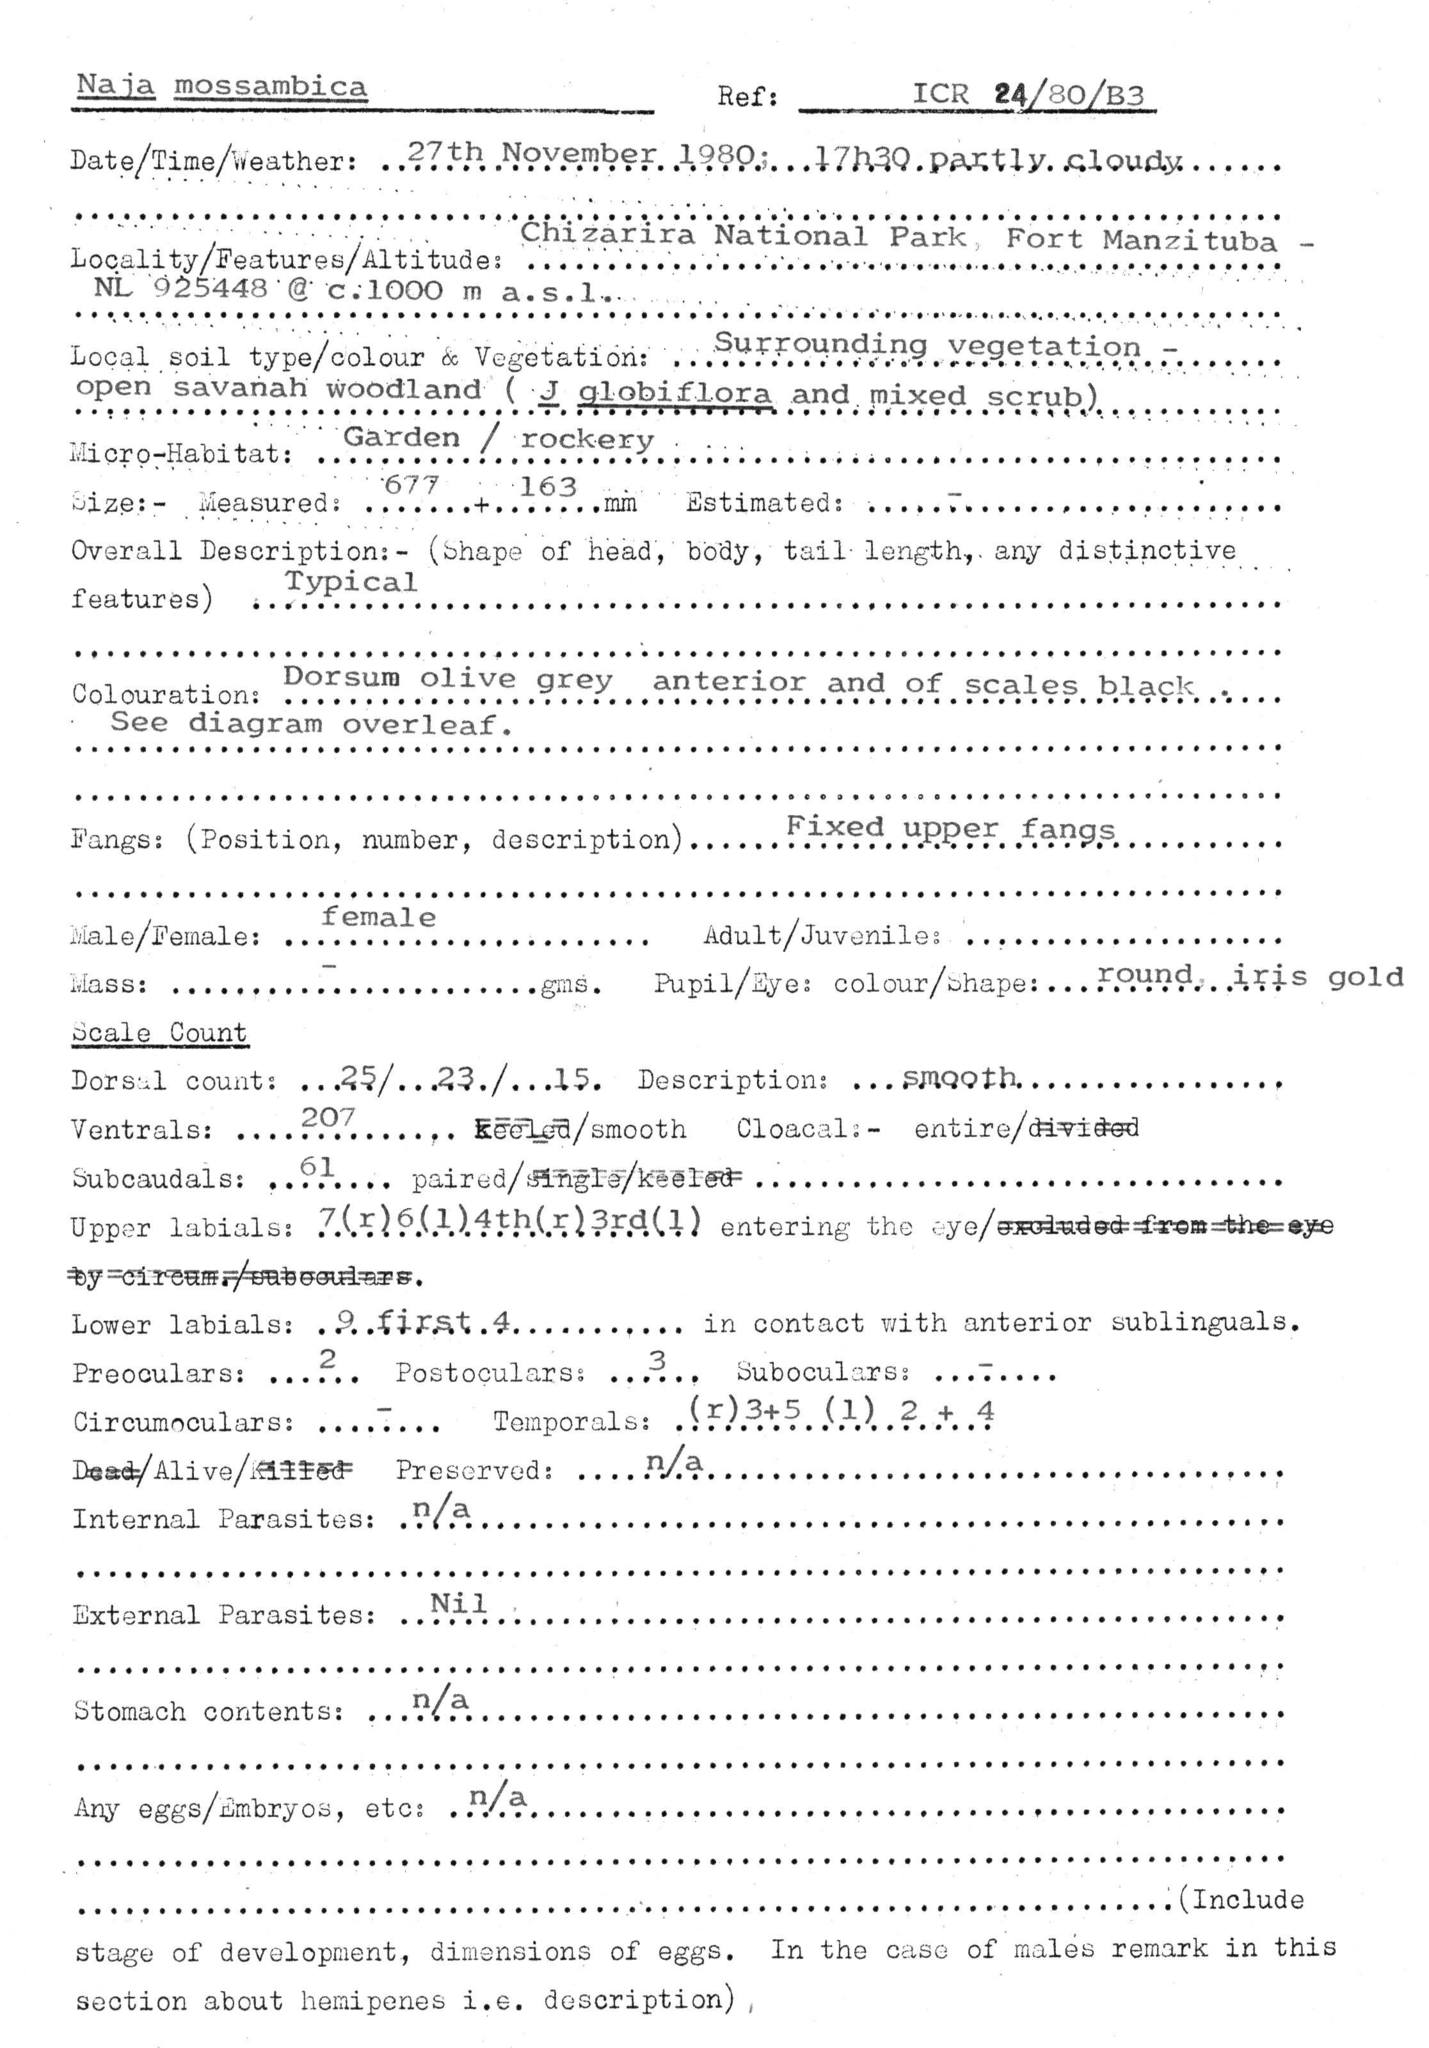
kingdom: Animalia
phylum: Chordata
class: Squamata
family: Elapidae
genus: Naja
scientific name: Naja mossambica
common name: Mozambique spitting cobra
